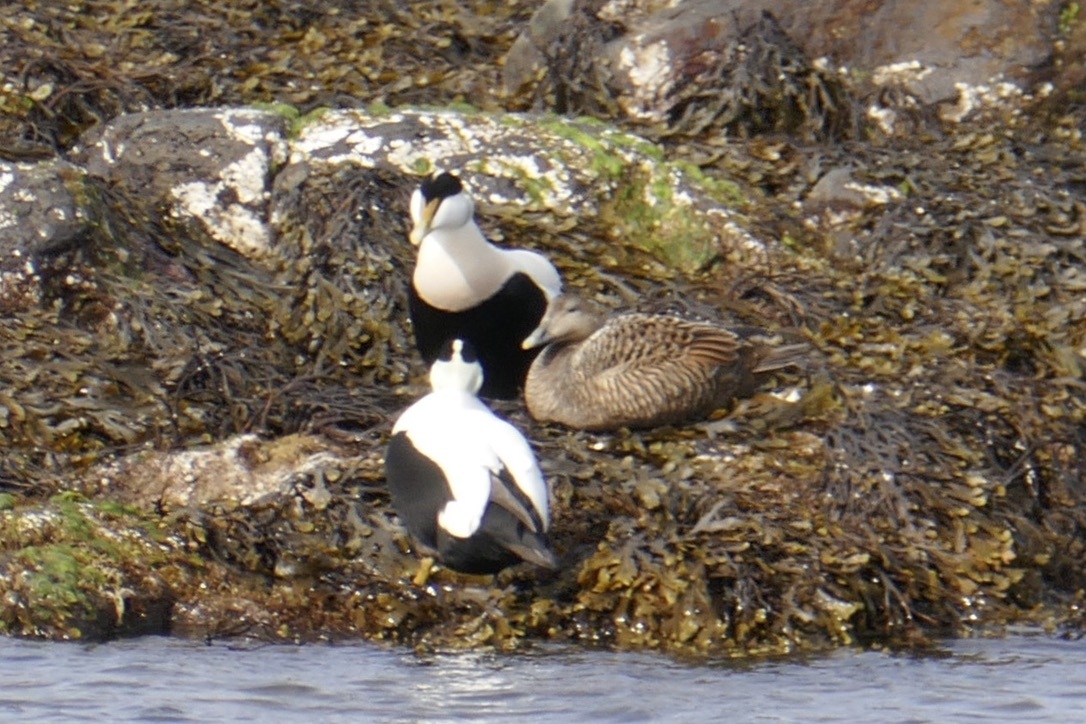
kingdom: Animalia
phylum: Chordata
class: Aves
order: Anseriformes
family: Anatidae
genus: Somateria
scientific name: Somateria mollissima
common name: Common eider
